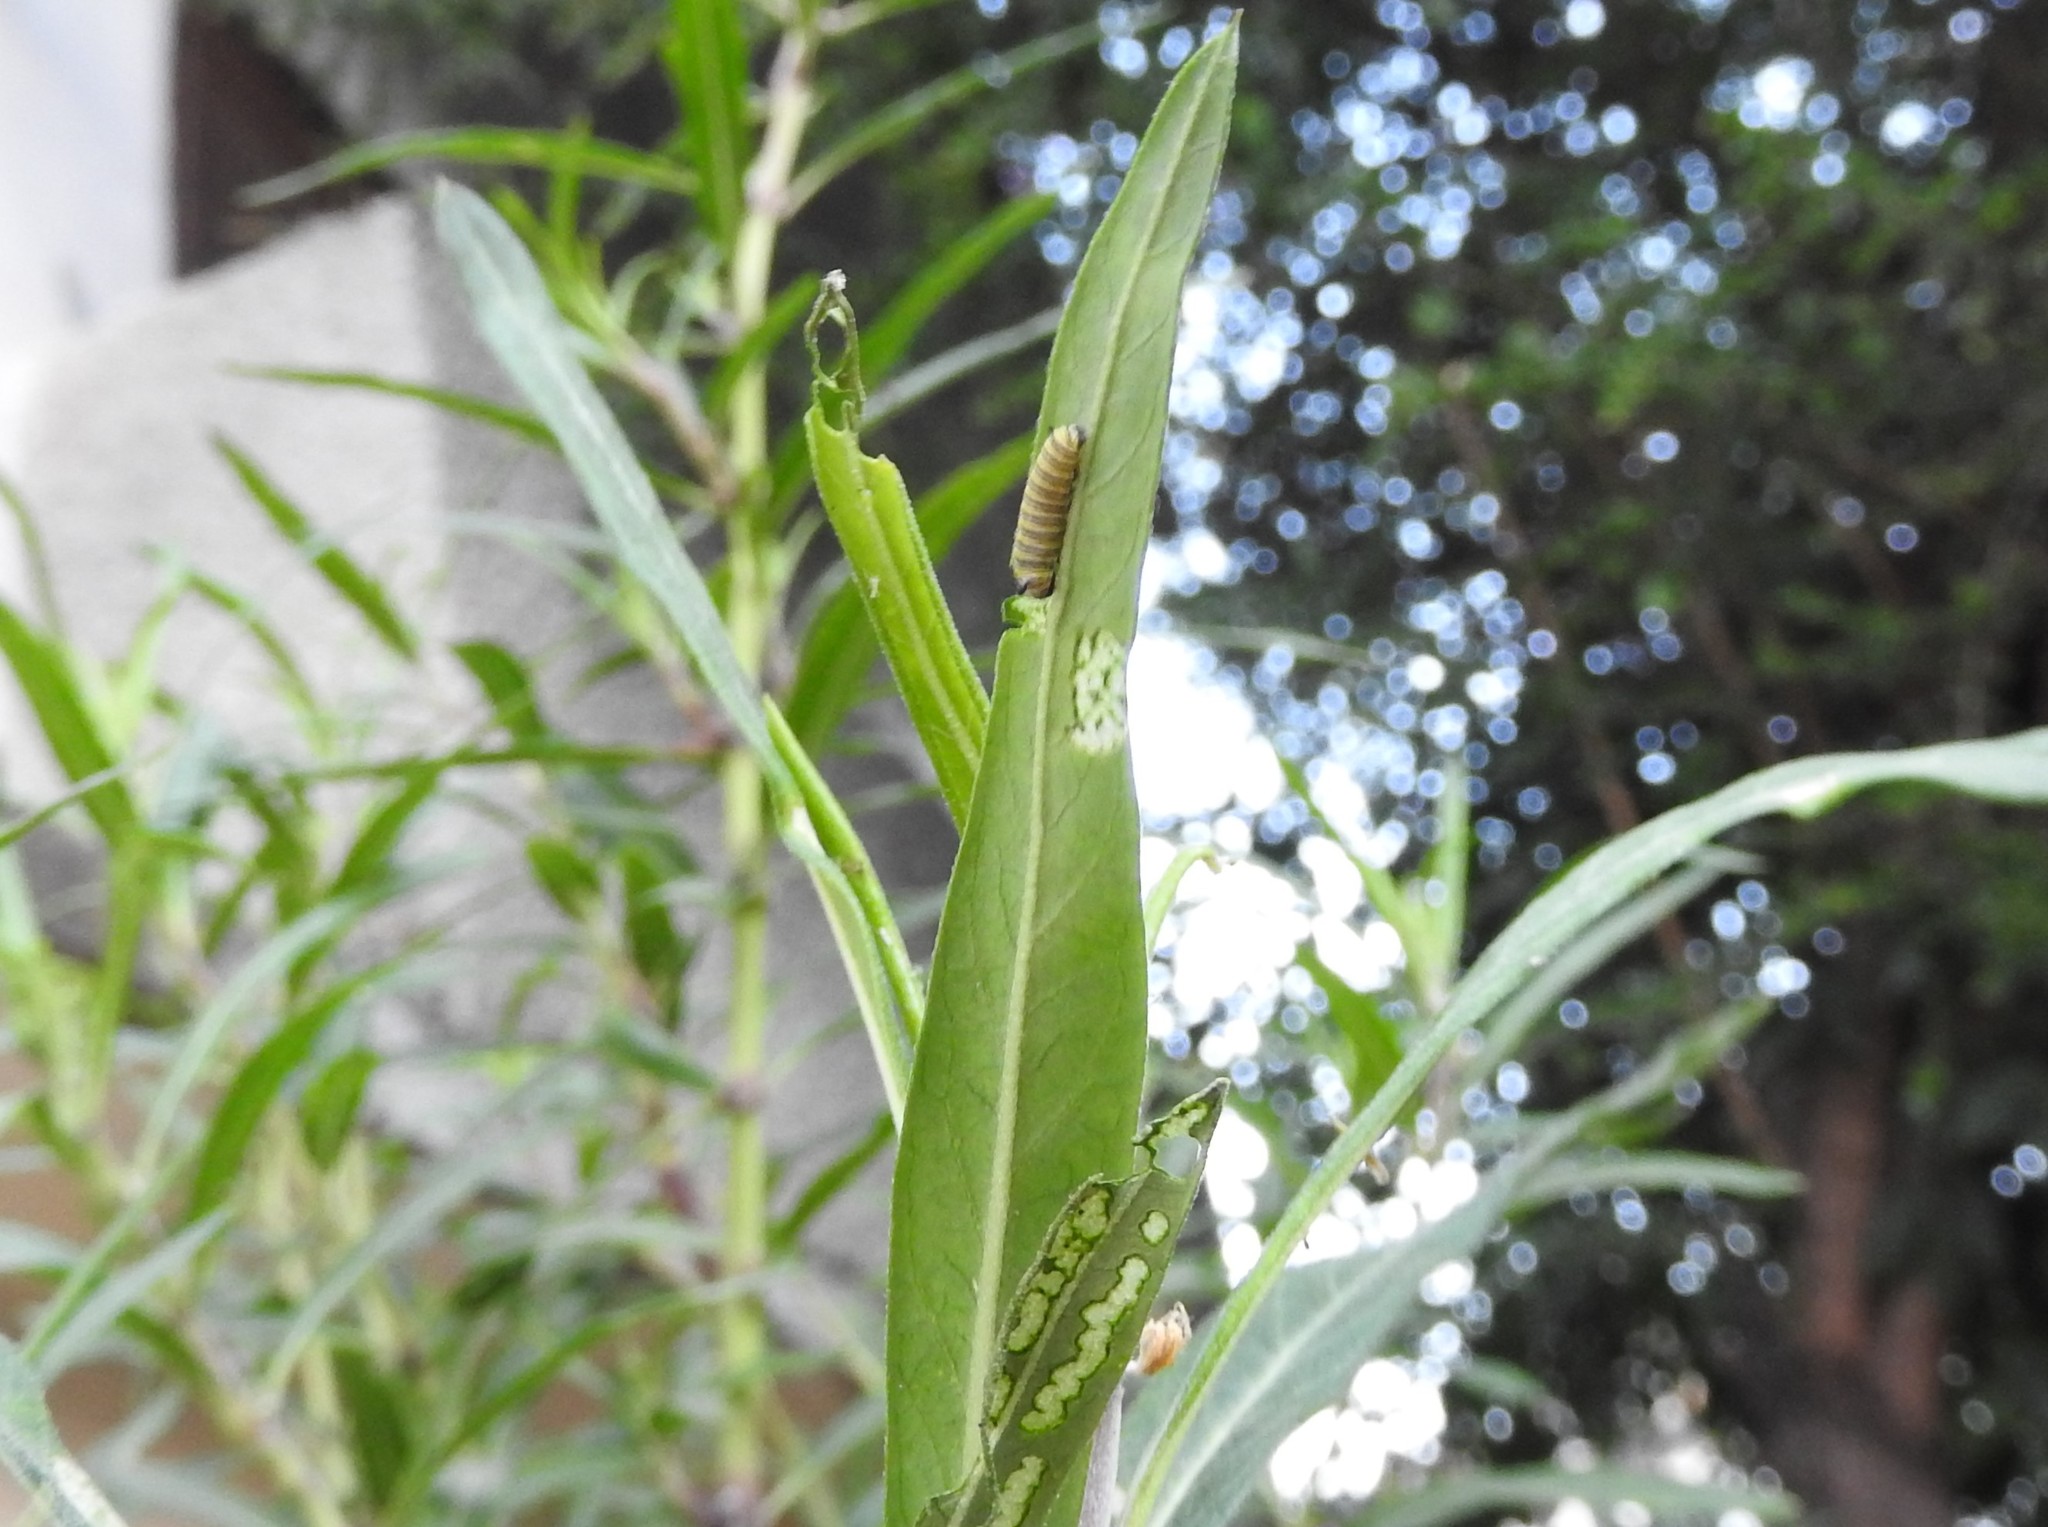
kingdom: Animalia
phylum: Arthropoda
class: Insecta
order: Lepidoptera
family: Nymphalidae
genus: Danaus
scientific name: Danaus plexippus
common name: Monarch
